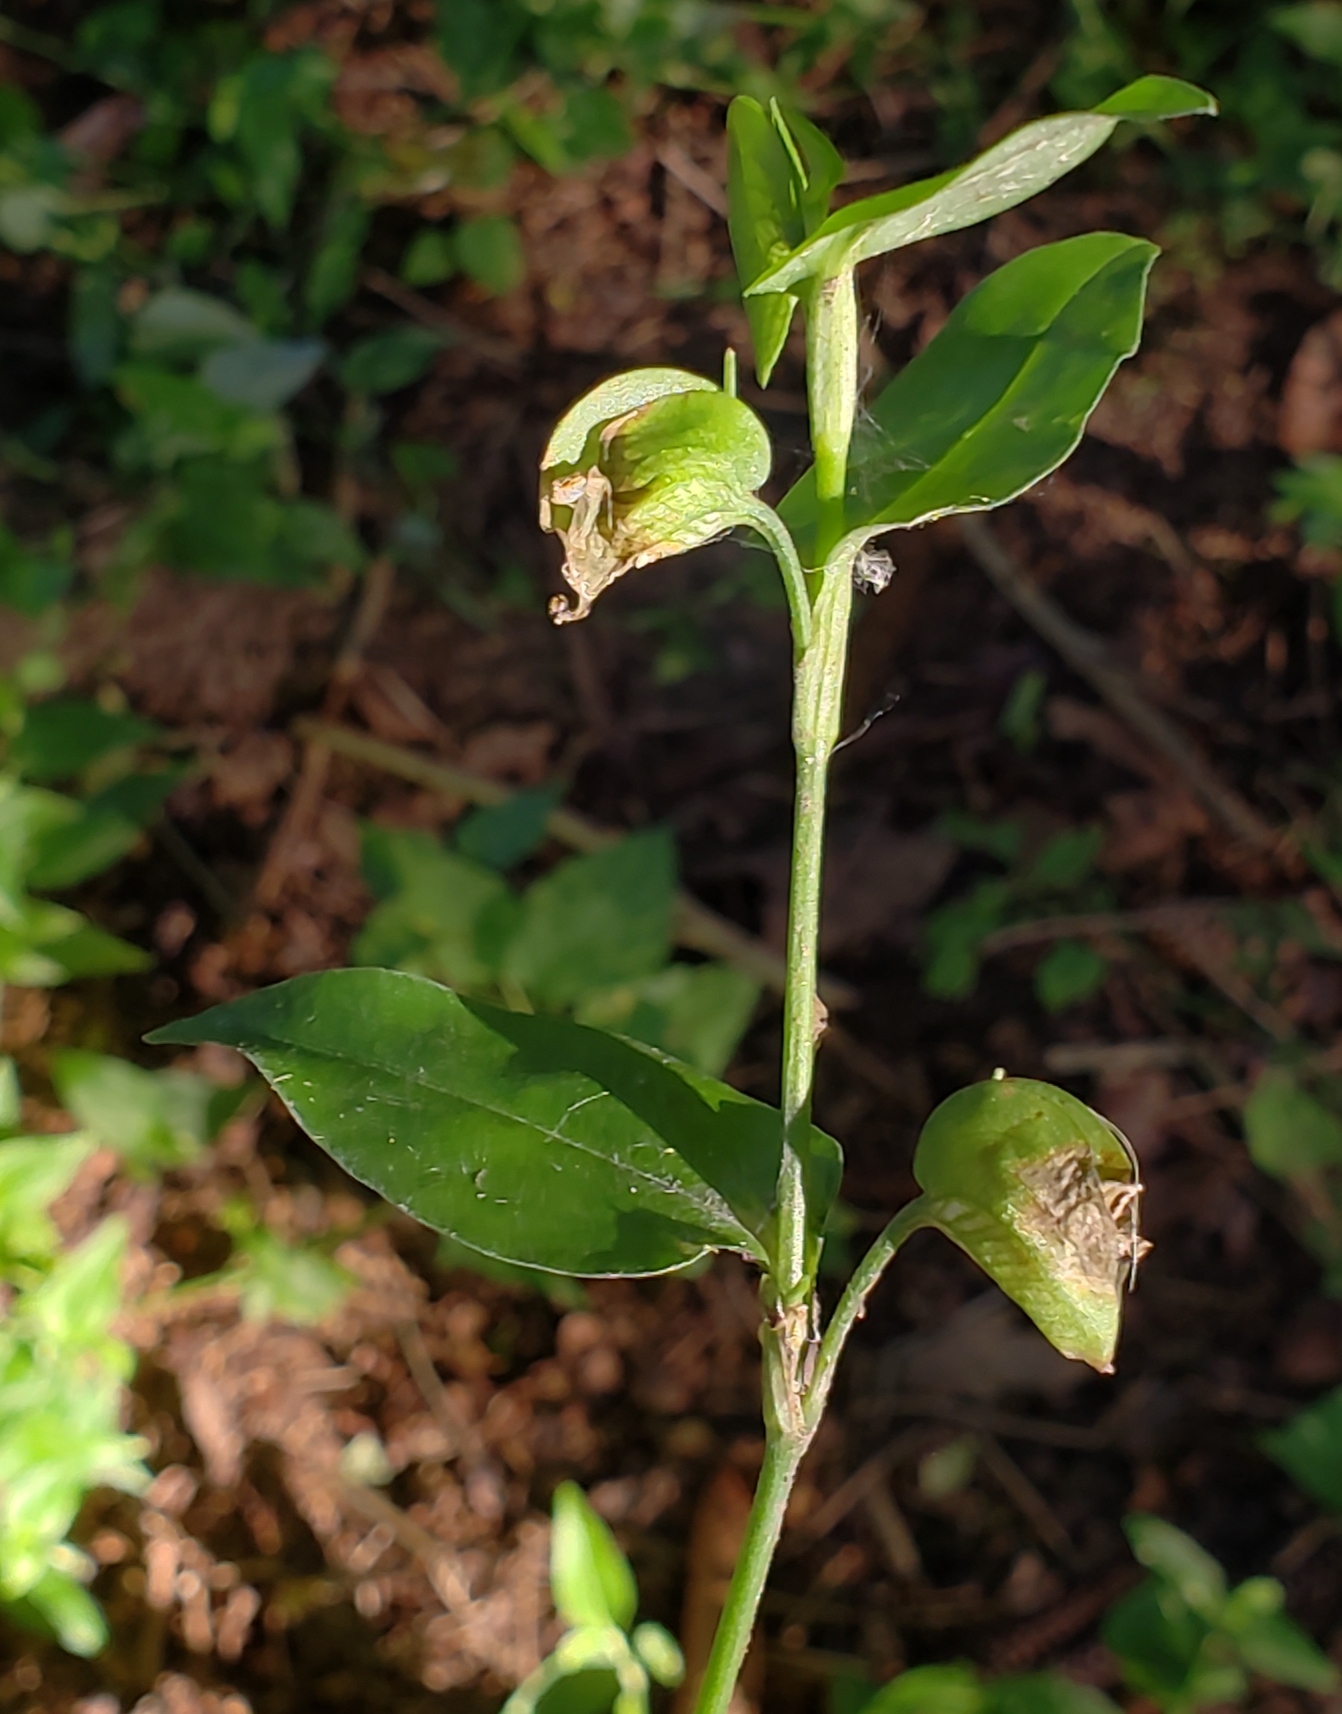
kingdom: Plantae
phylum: Tracheophyta
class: Liliopsida
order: Commelinales
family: Commelinaceae
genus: Commelina
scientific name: Commelina communis
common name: Asiatic dayflower
